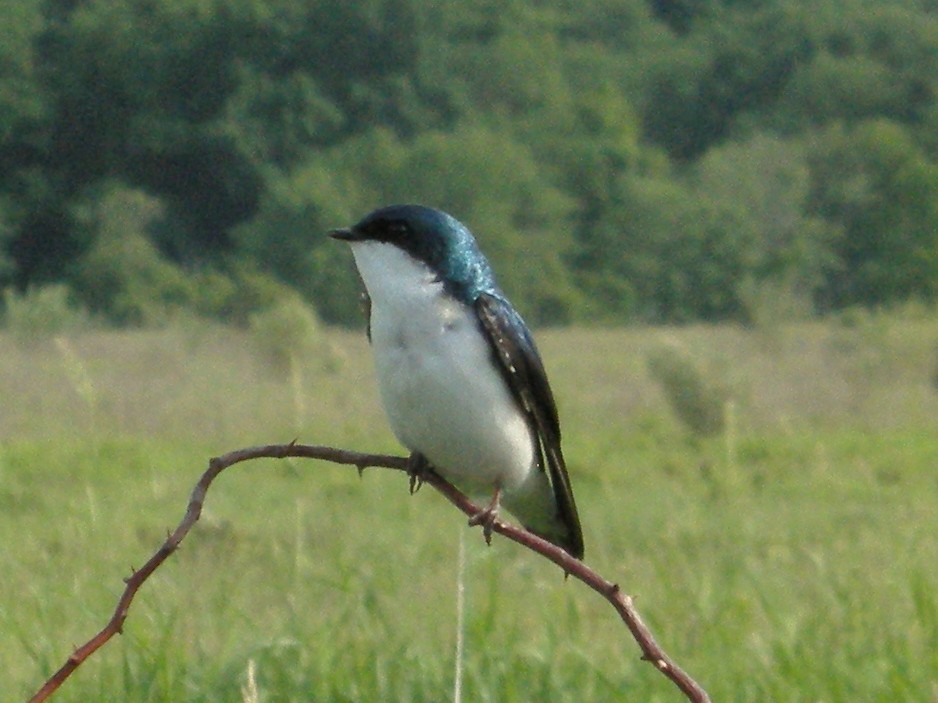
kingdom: Animalia
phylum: Chordata
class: Aves
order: Passeriformes
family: Hirundinidae
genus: Tachycineta
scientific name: Tachycineta bicolor
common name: Tree swallow
